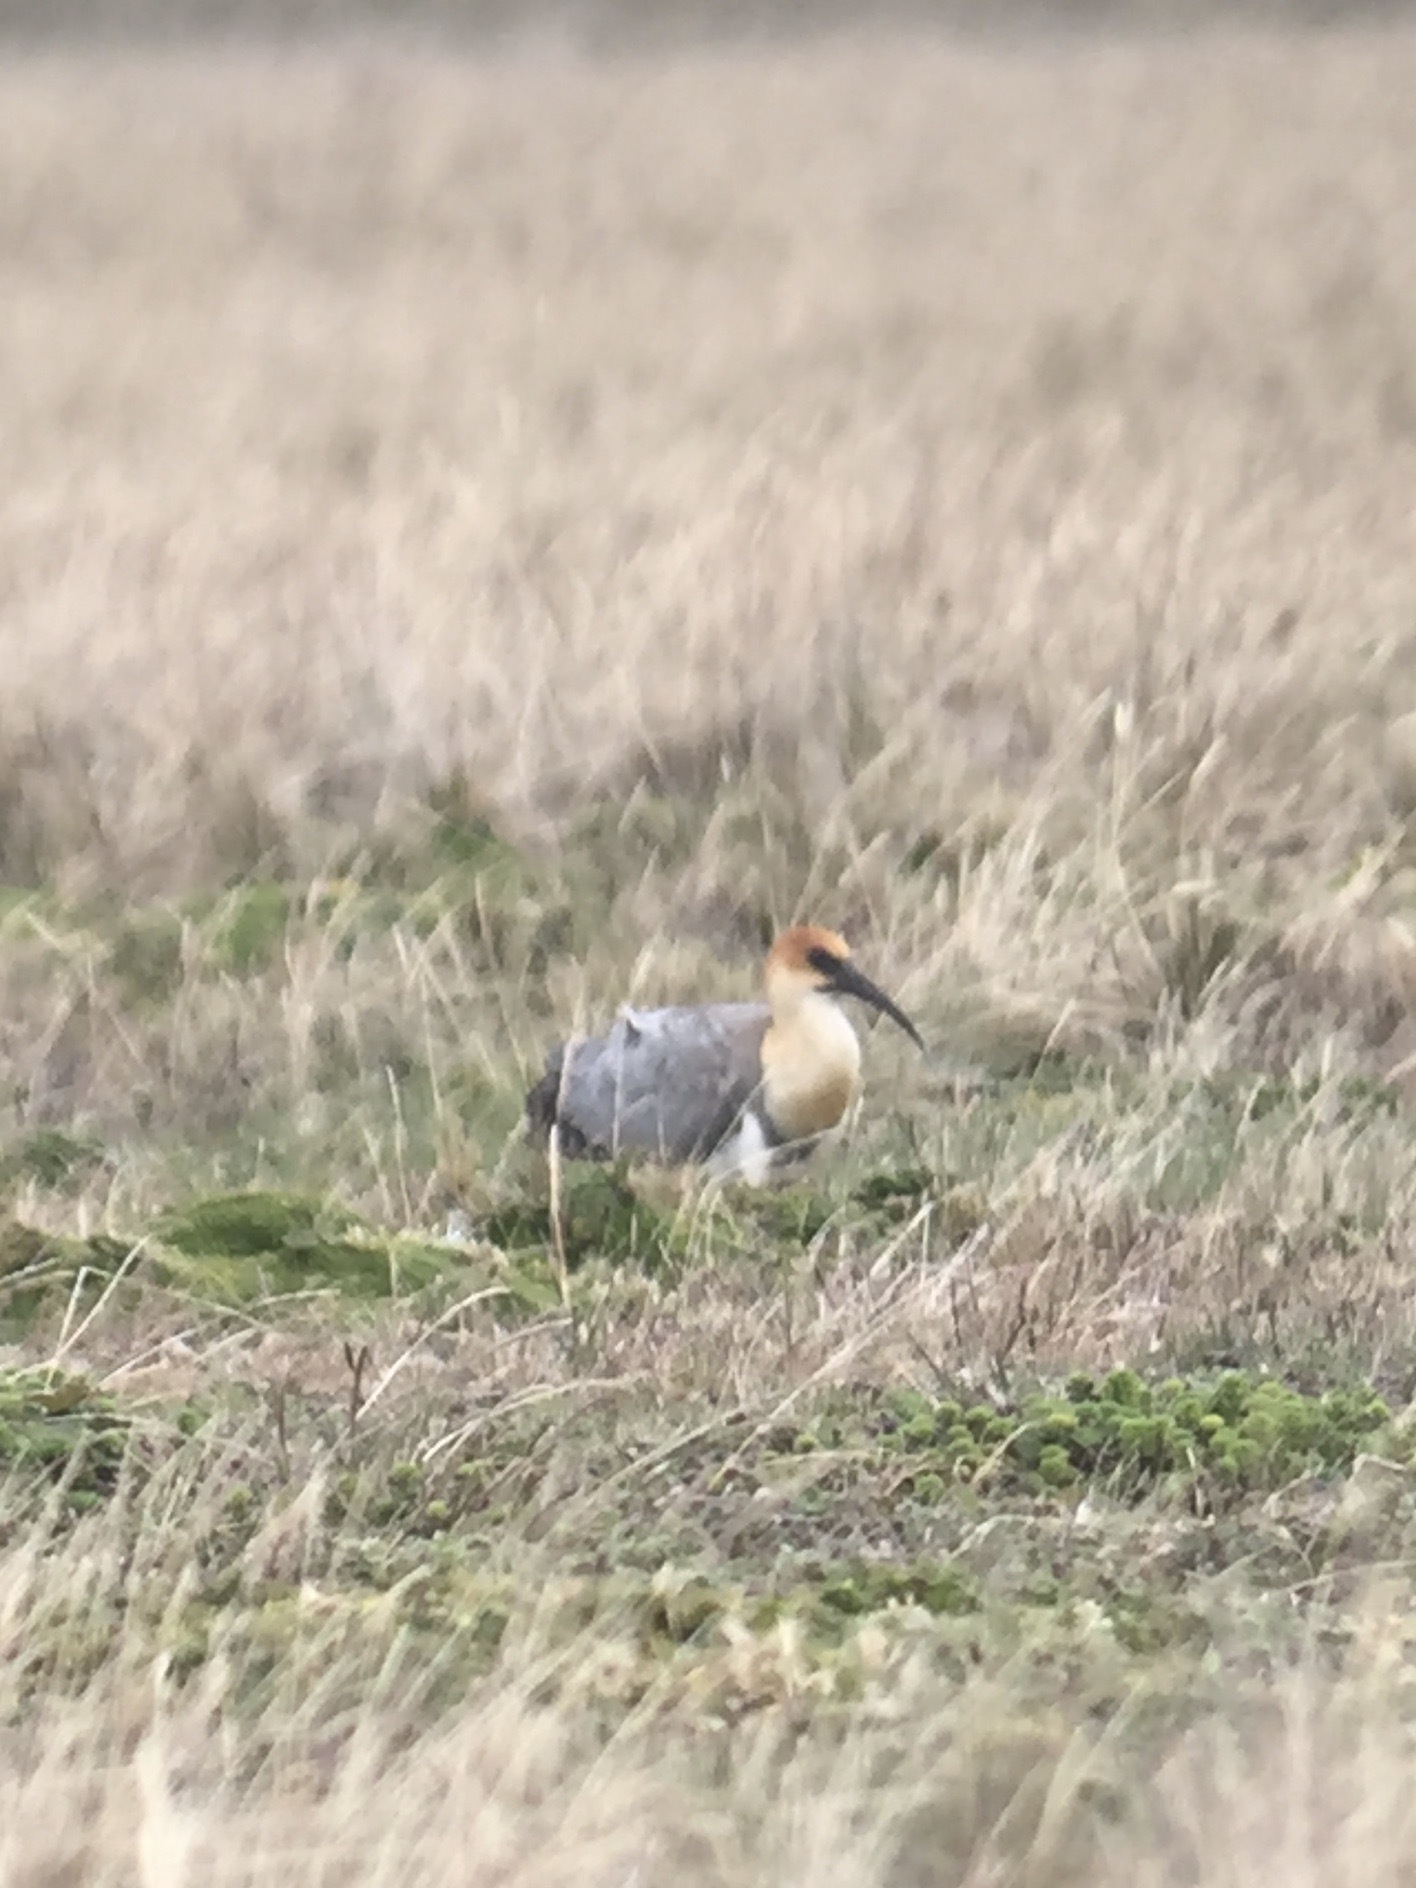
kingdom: Animalia
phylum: Chordata
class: Aves
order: Pelecaniformes
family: Threskiornithidae
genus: Theristicus
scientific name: Theristicus melanopis
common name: Black-faced ibis
